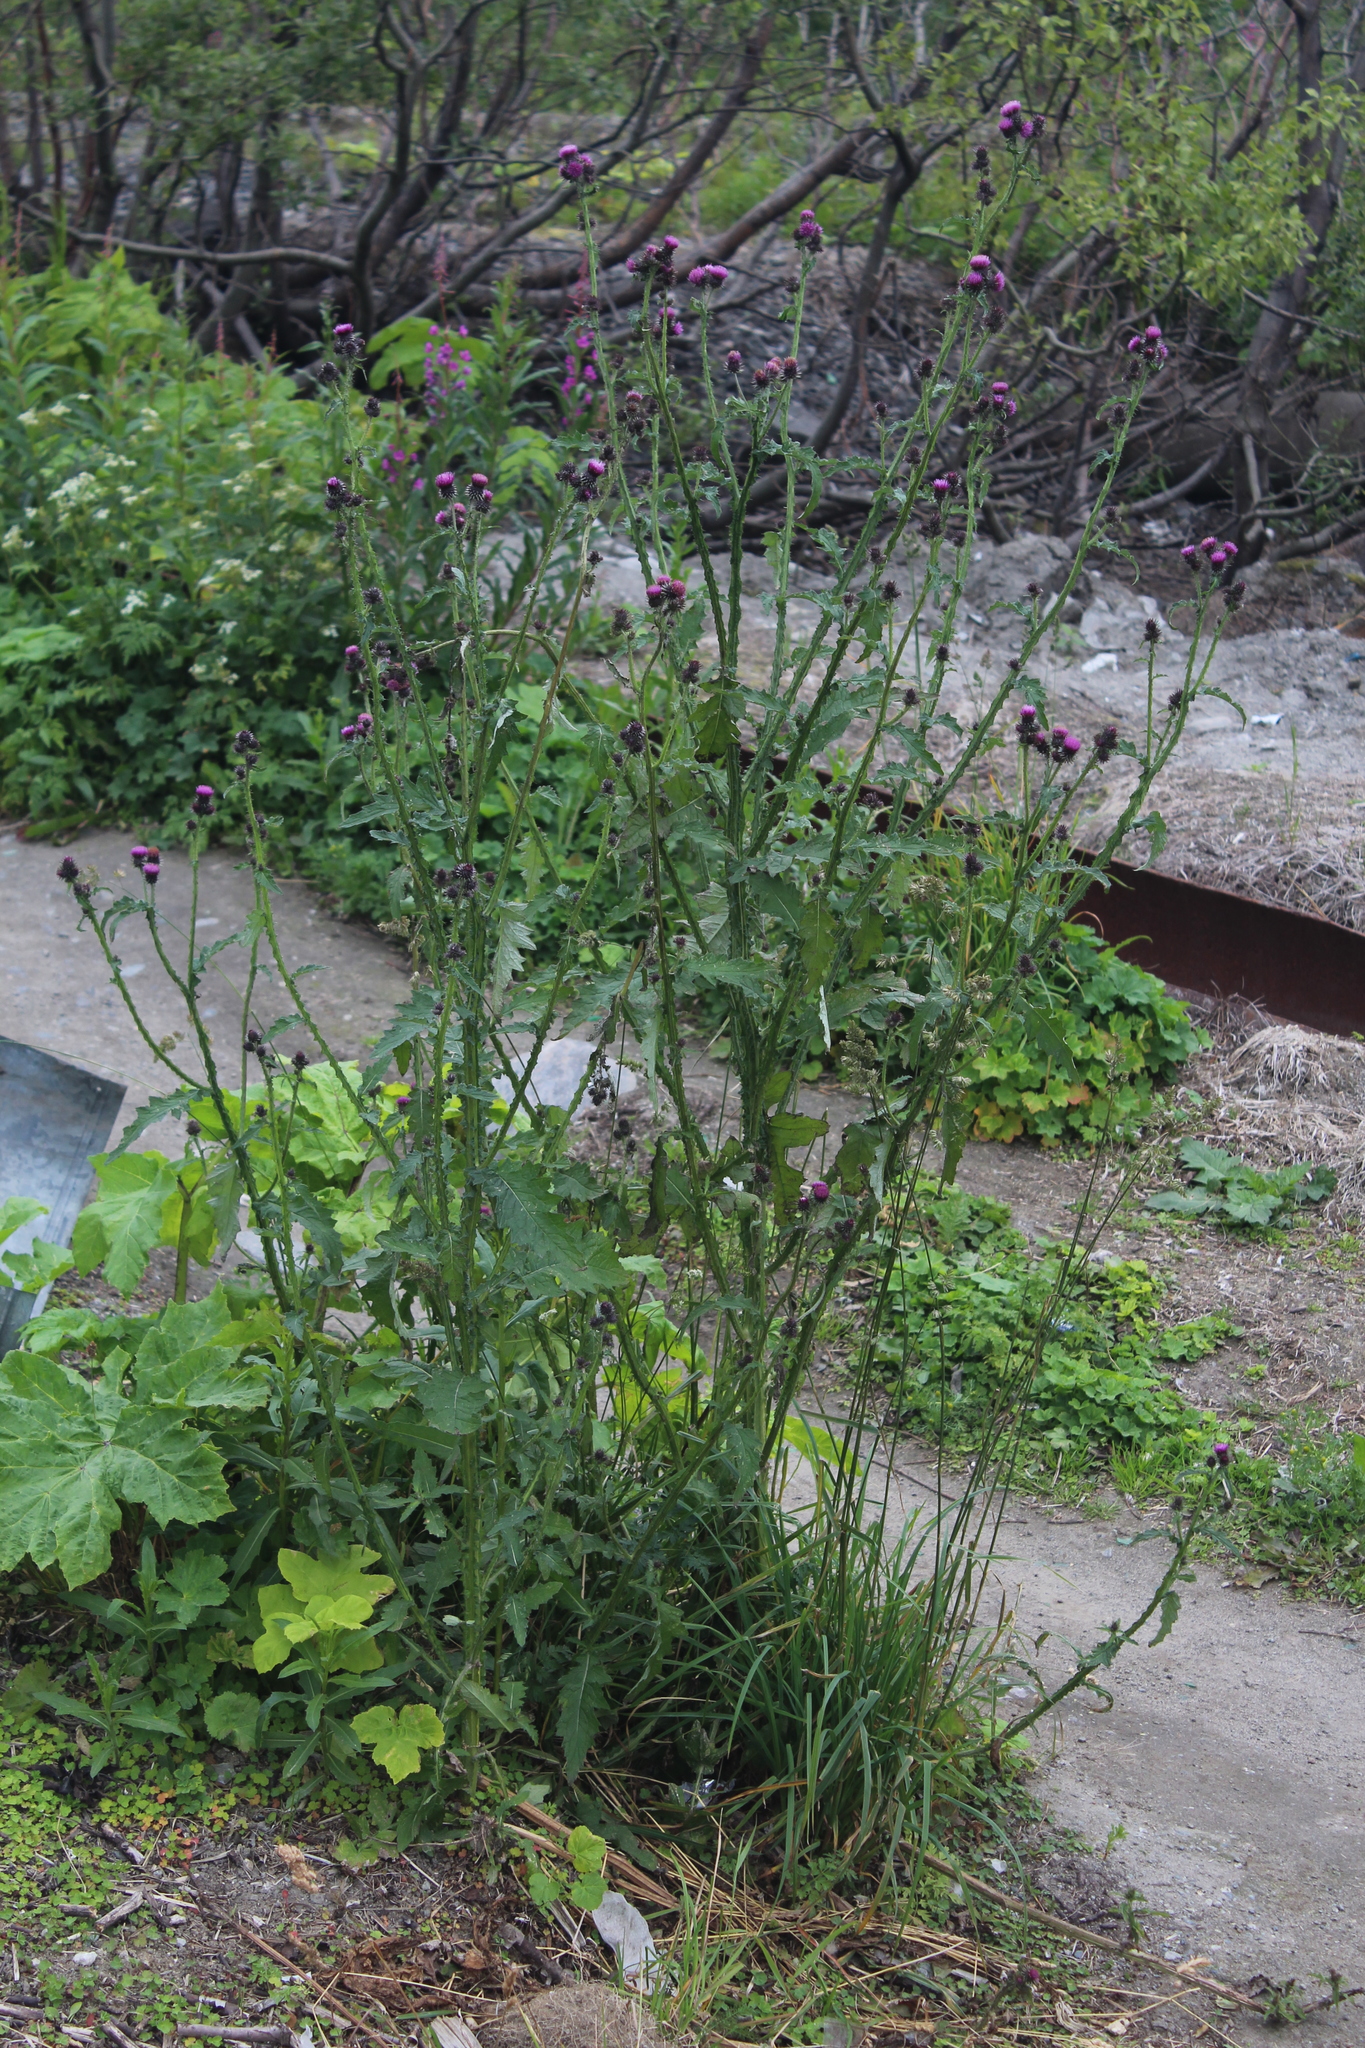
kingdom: Plantae
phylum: Tracheophyta
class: Magnoliopsida
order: Asterales
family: Asteraceae
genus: Carduus
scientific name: Carduus crispus
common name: Welted thistle
